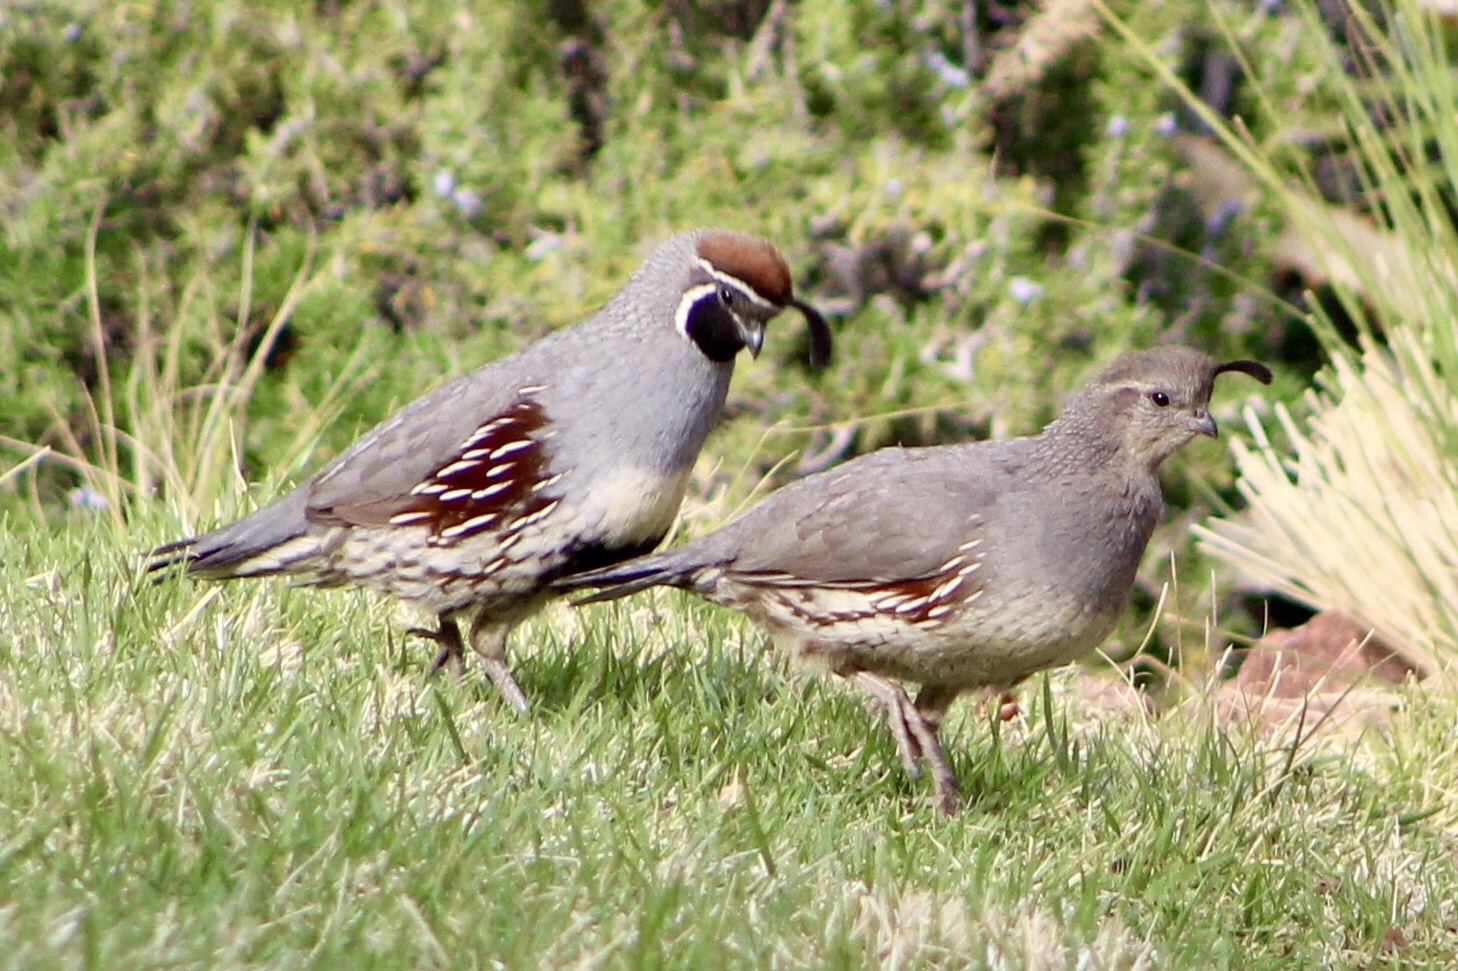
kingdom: Animalia
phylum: Chordata
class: Aves
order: Galliformes
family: Odontophoridae
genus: Callipepla
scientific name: Callipepla gambelii
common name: Gambel's quail
